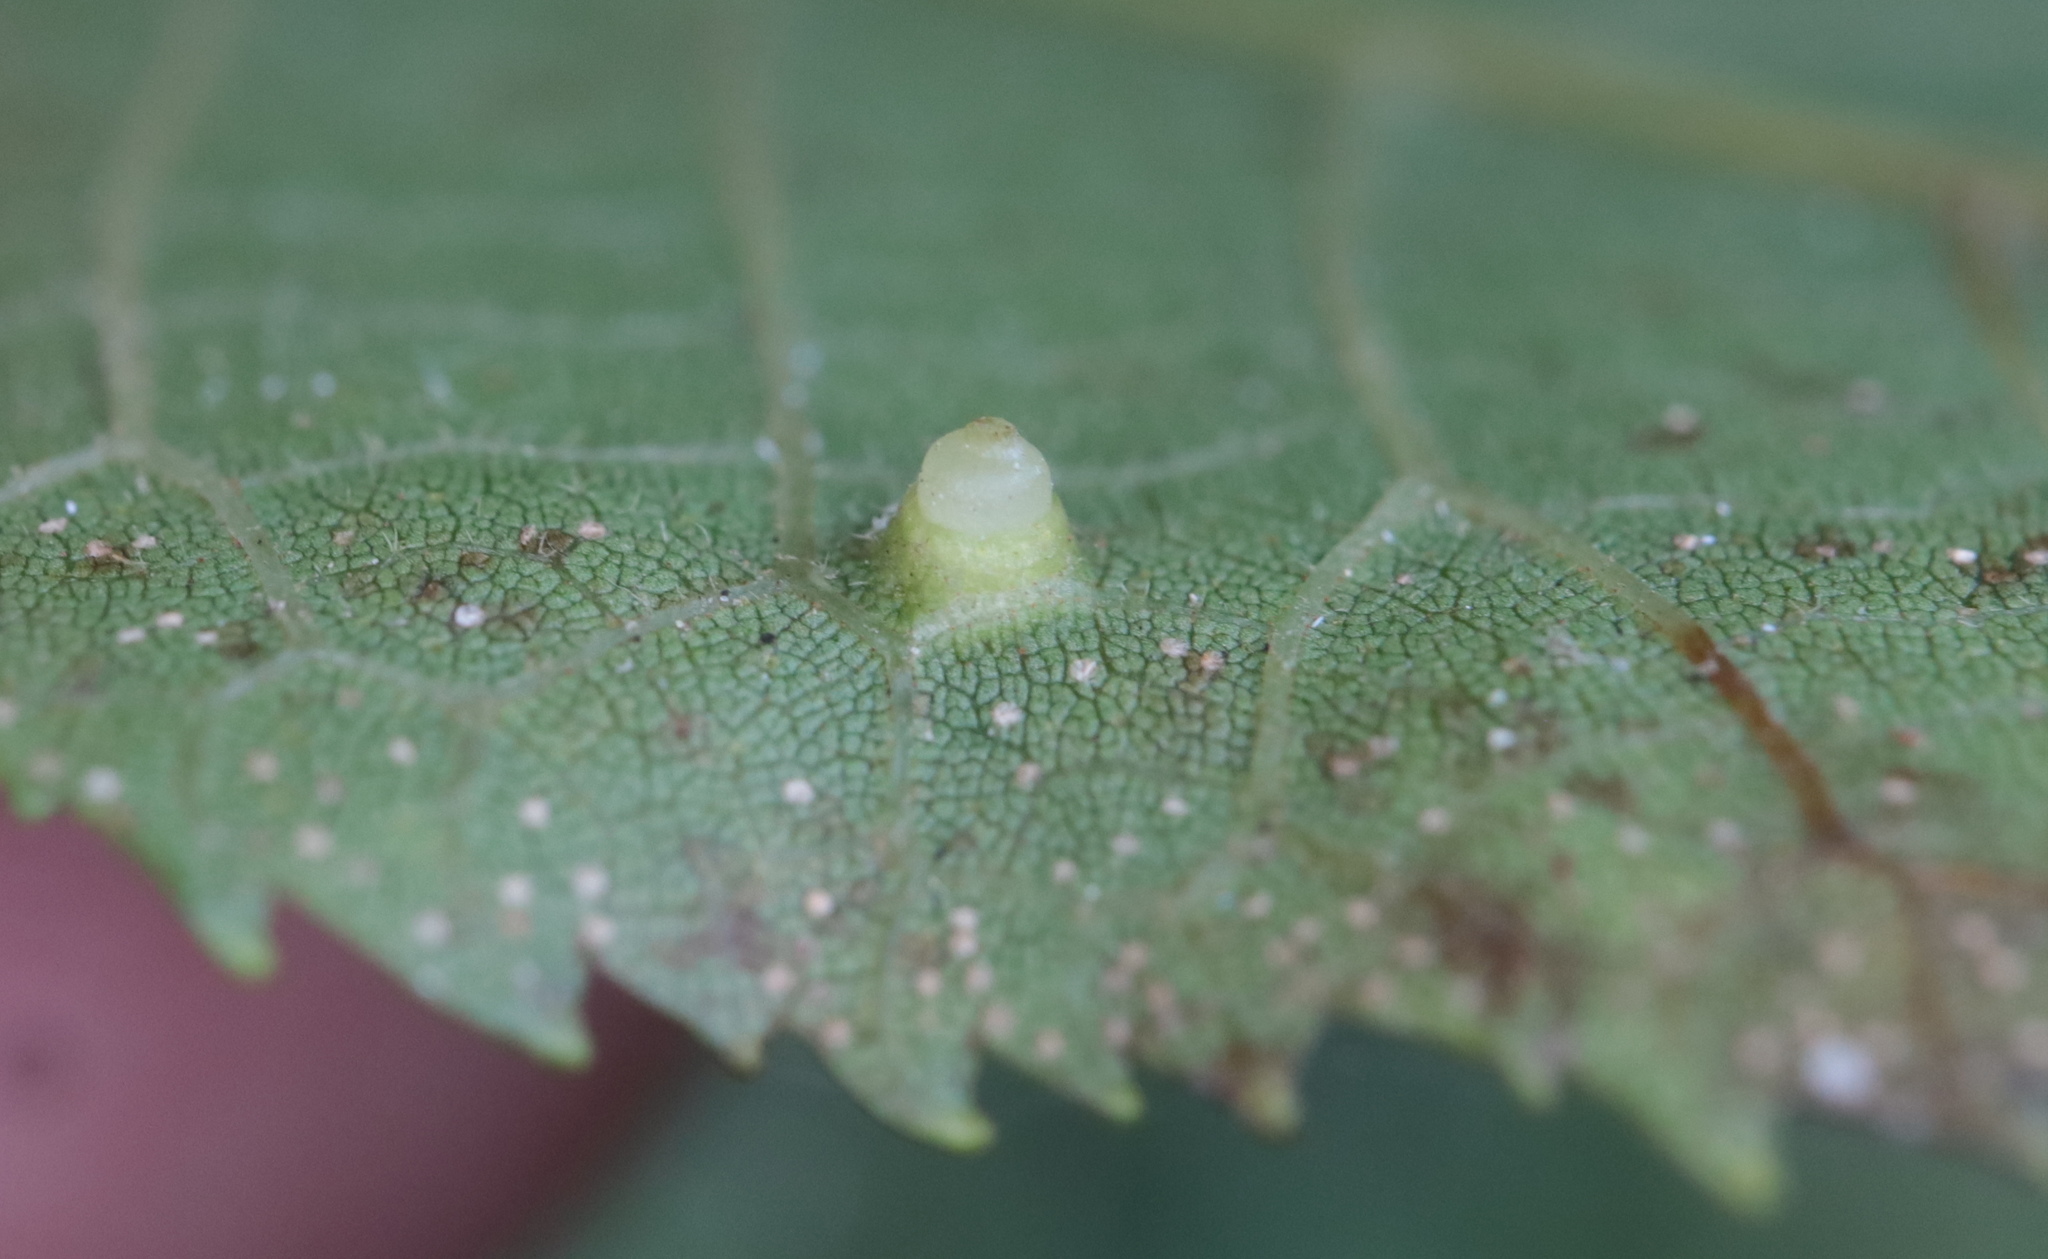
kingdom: Animalia
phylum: Arthropoda
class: Insecta
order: Diptera
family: Cecidomyiidae
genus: Caryomyia
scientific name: Caryomyia tubicola
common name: Hickory bullet gall midge
